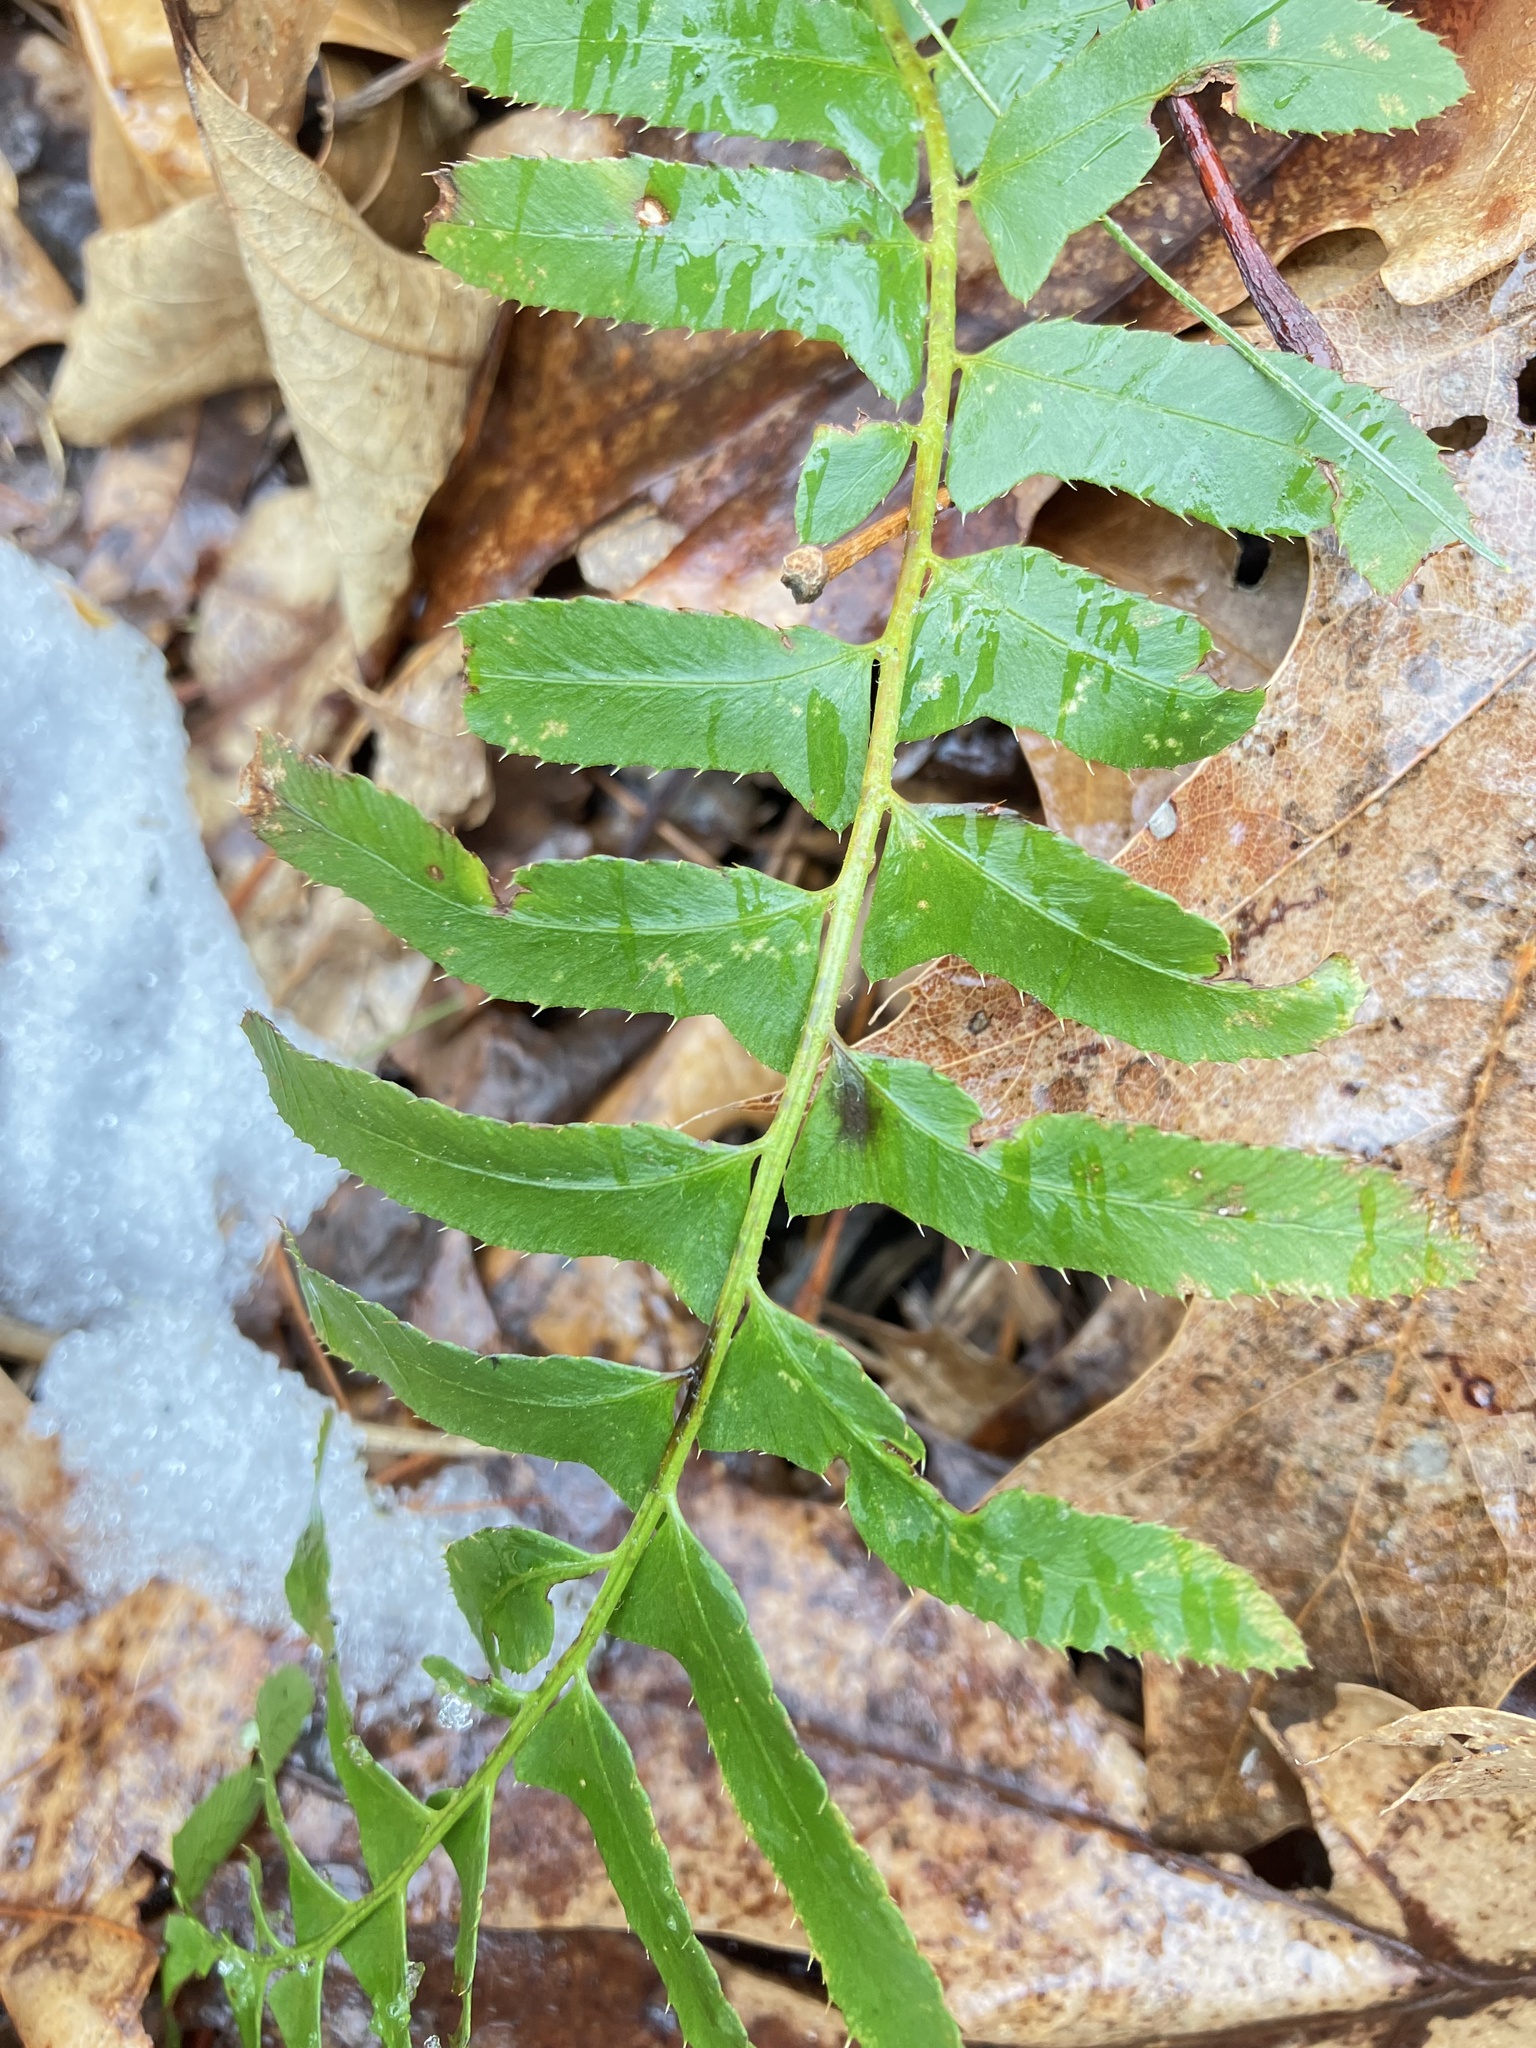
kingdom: Plantae
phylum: Tracheophyta
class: Polypodiopsida
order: Polypodiales
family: Dryopteridaceae
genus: Polystichum
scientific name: Polystichum acrostichoides
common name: Christmas fern
